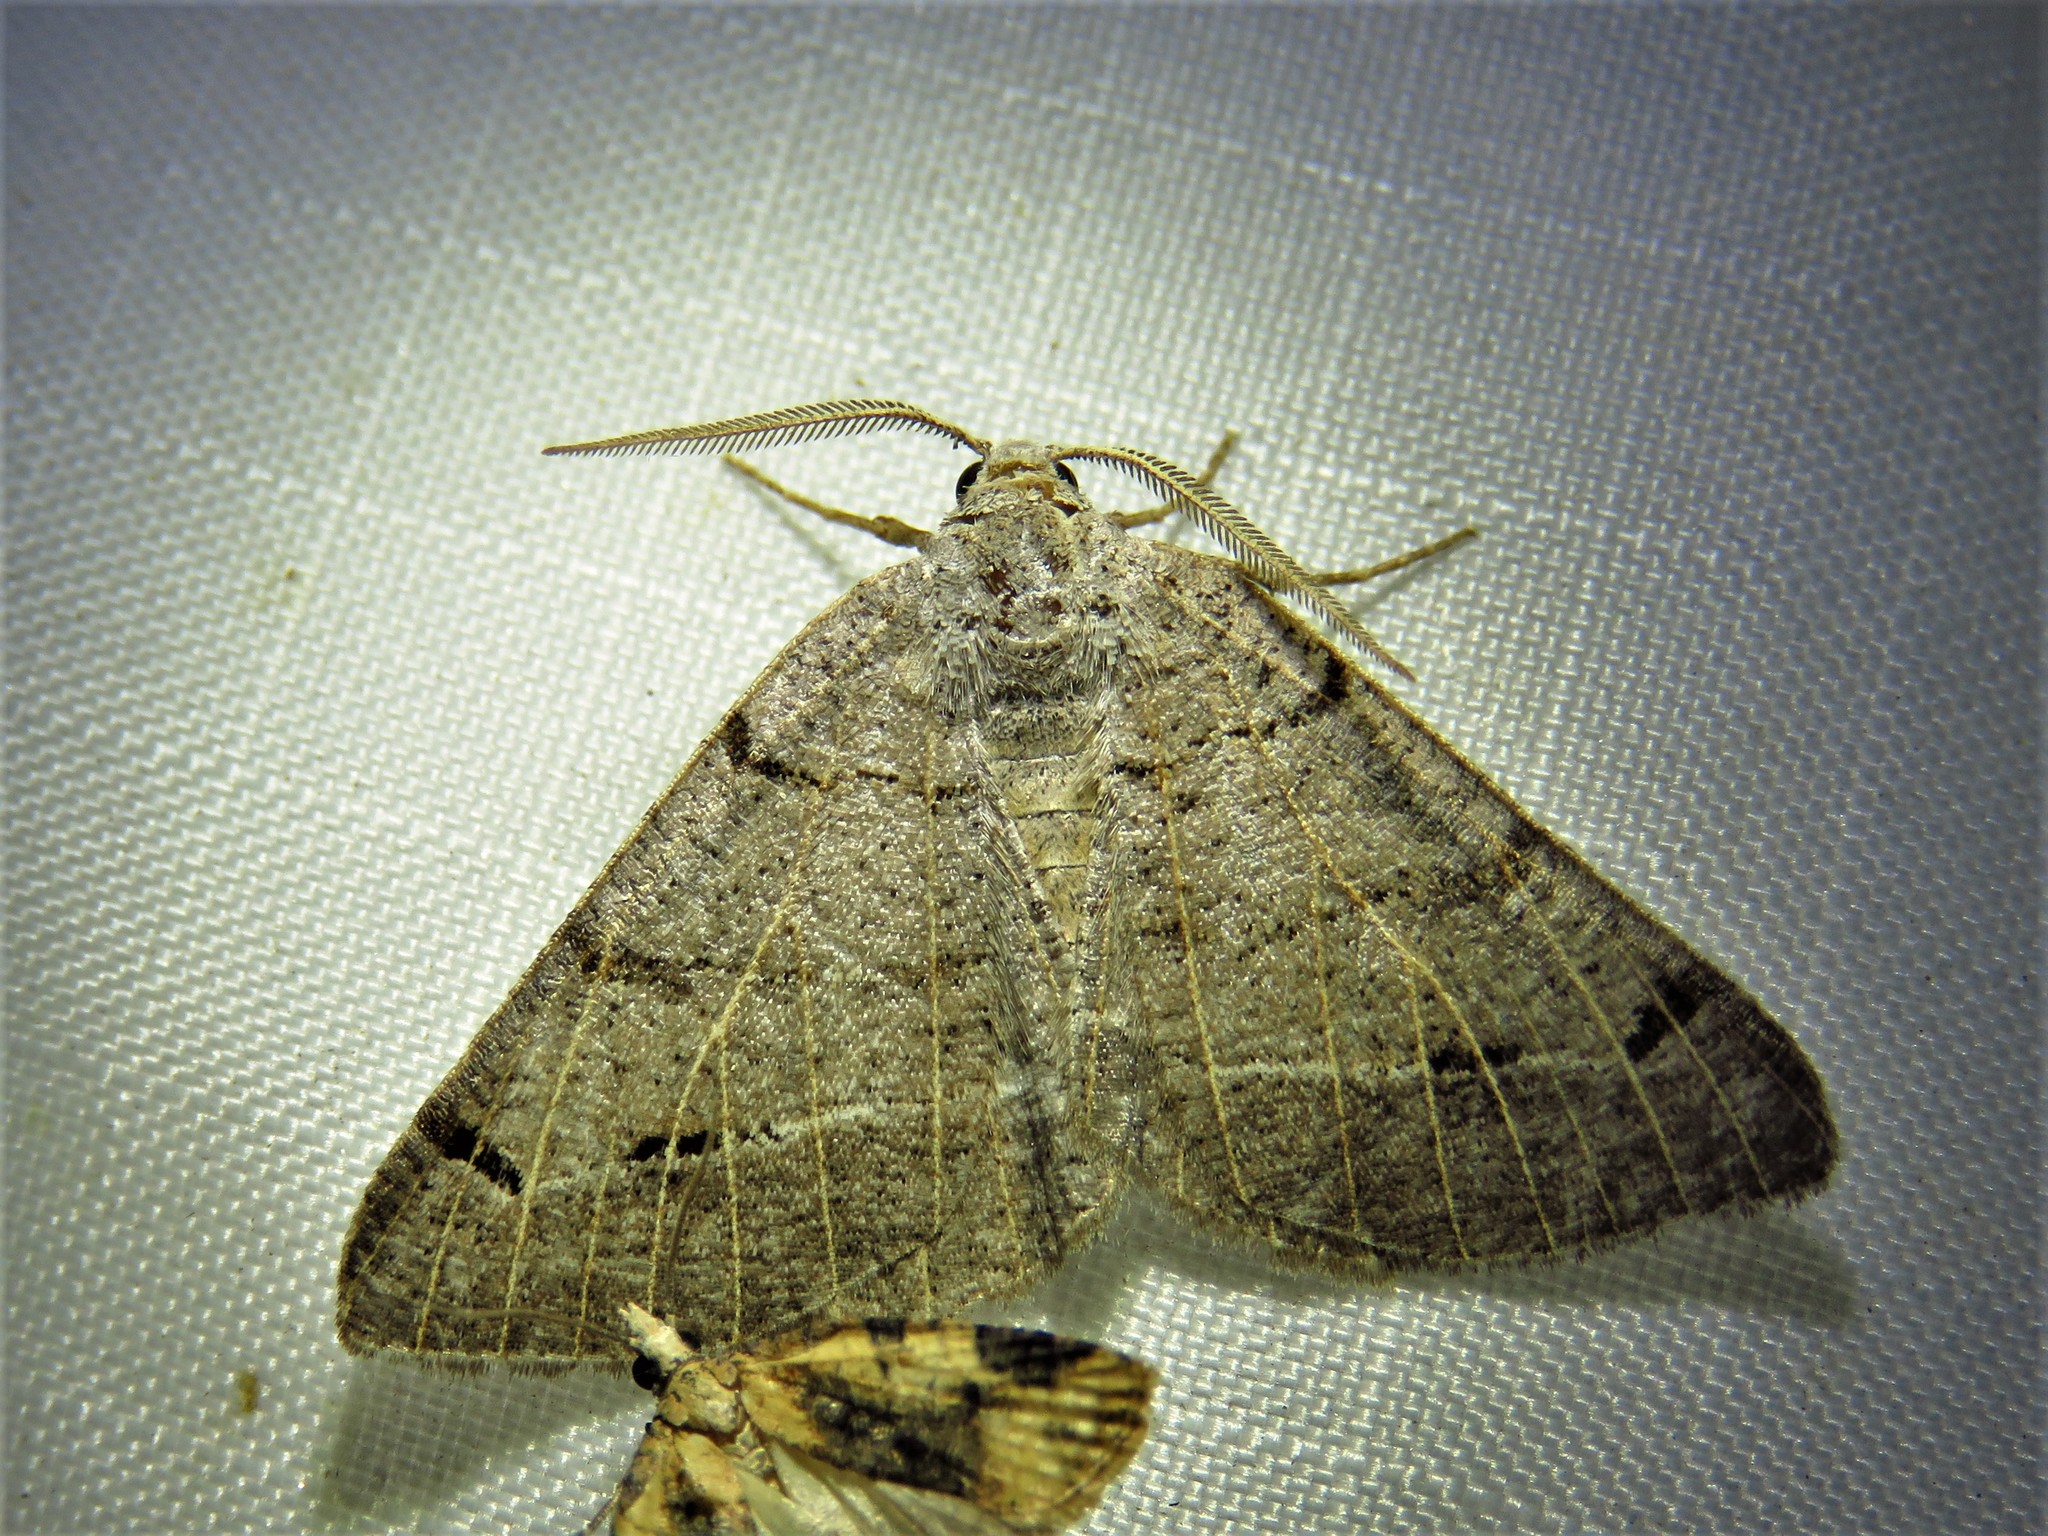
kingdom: Animalia
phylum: Arthropoda
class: Insecta
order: Lepidoptera
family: Geometridae
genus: Isturgia
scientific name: Isturgia dislocaria
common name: Pale-viened enconista
